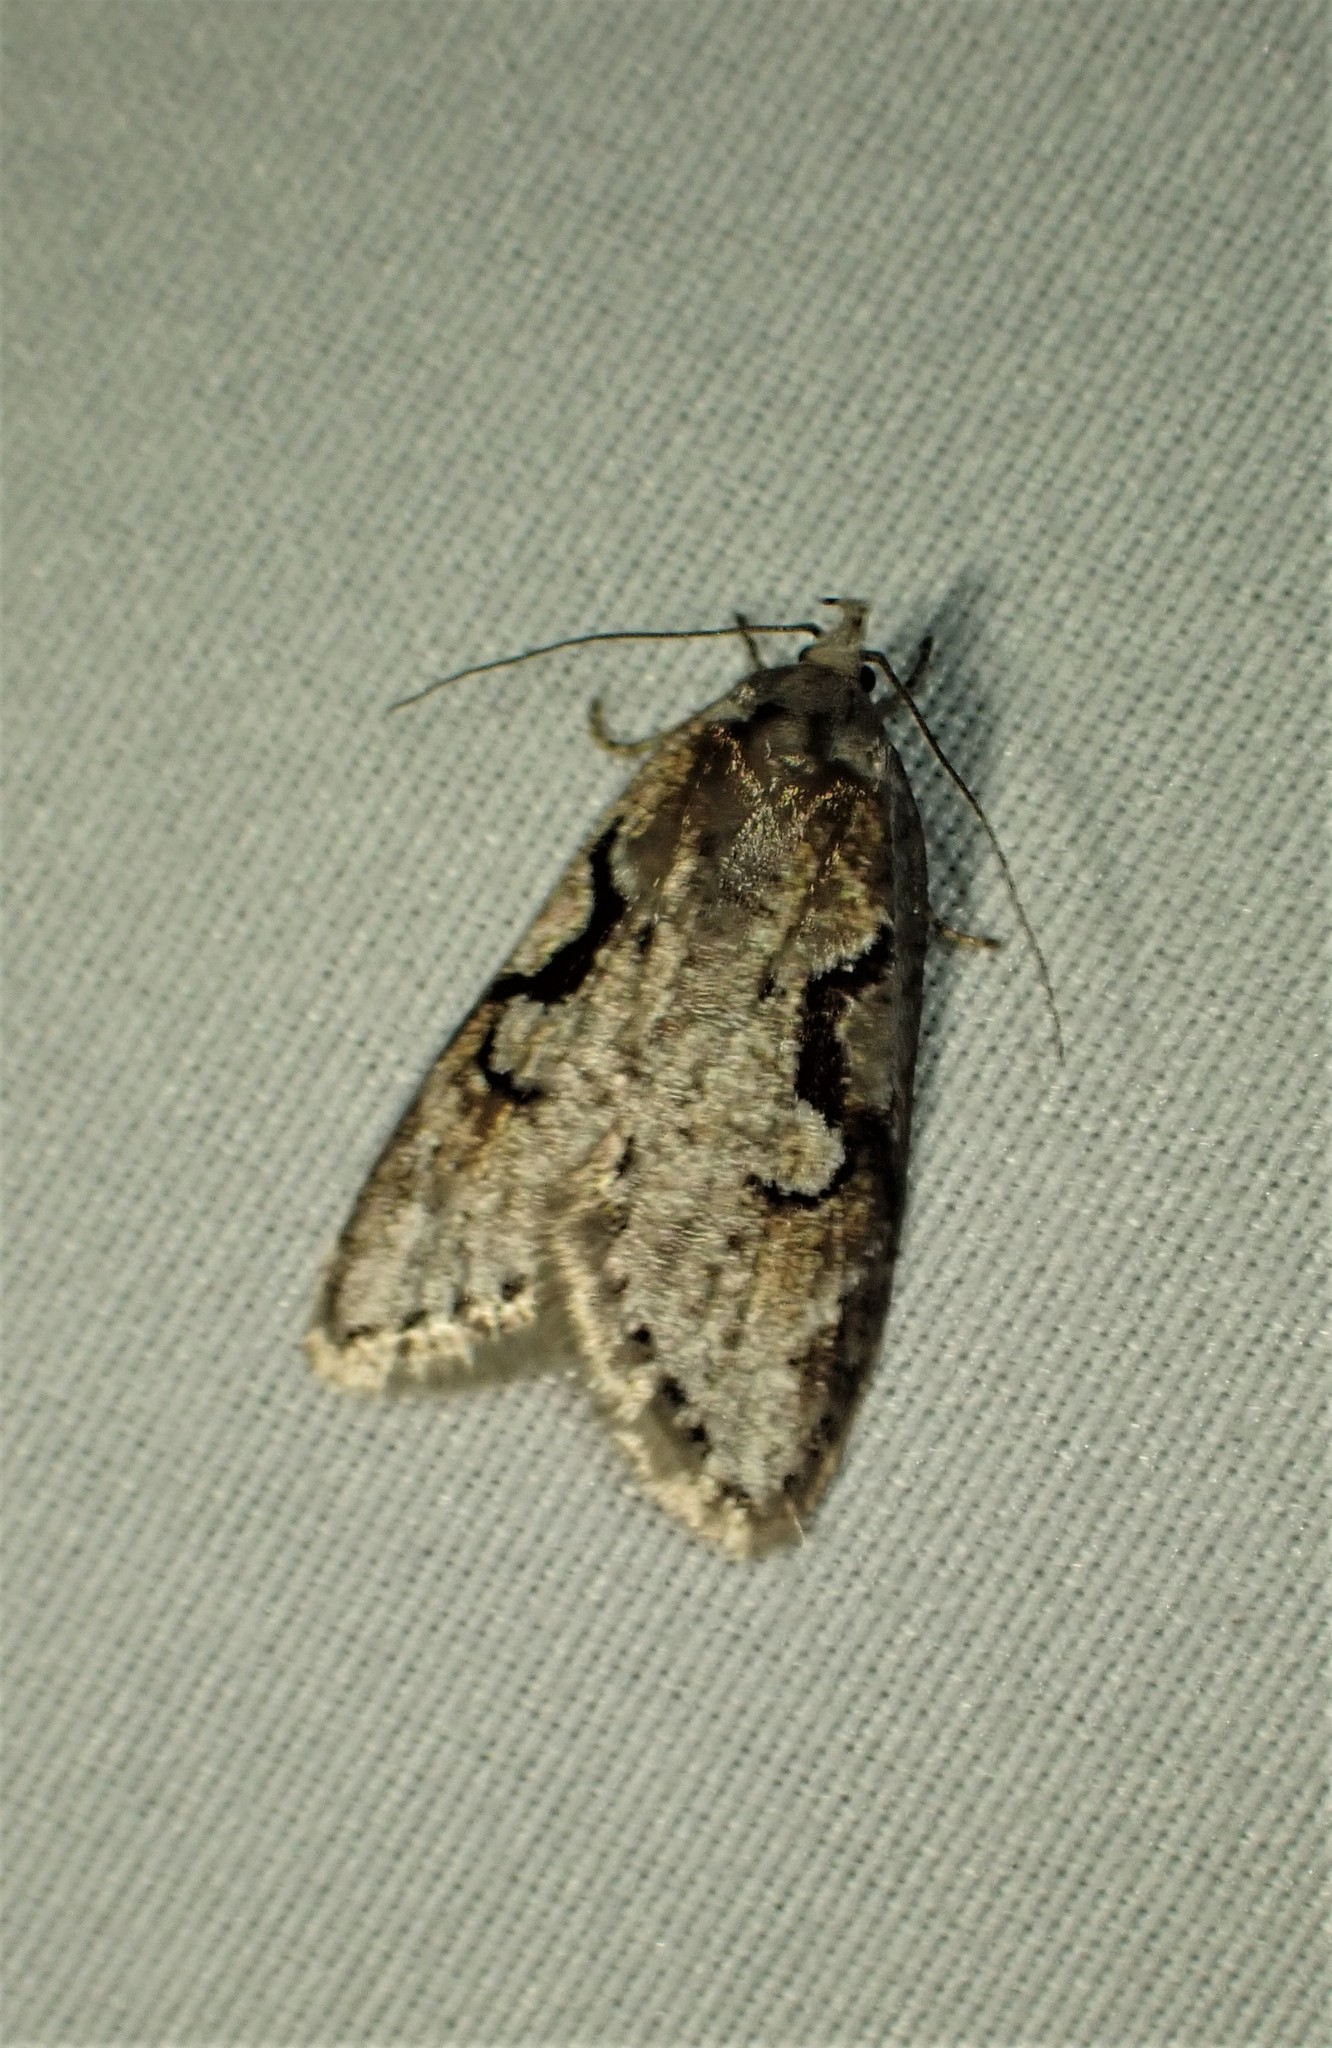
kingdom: Animalia
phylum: Arthropoda
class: Insecta
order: Lepidoptera
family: Depressariidae
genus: Semioscopis
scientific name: Semioscopis merriccella
